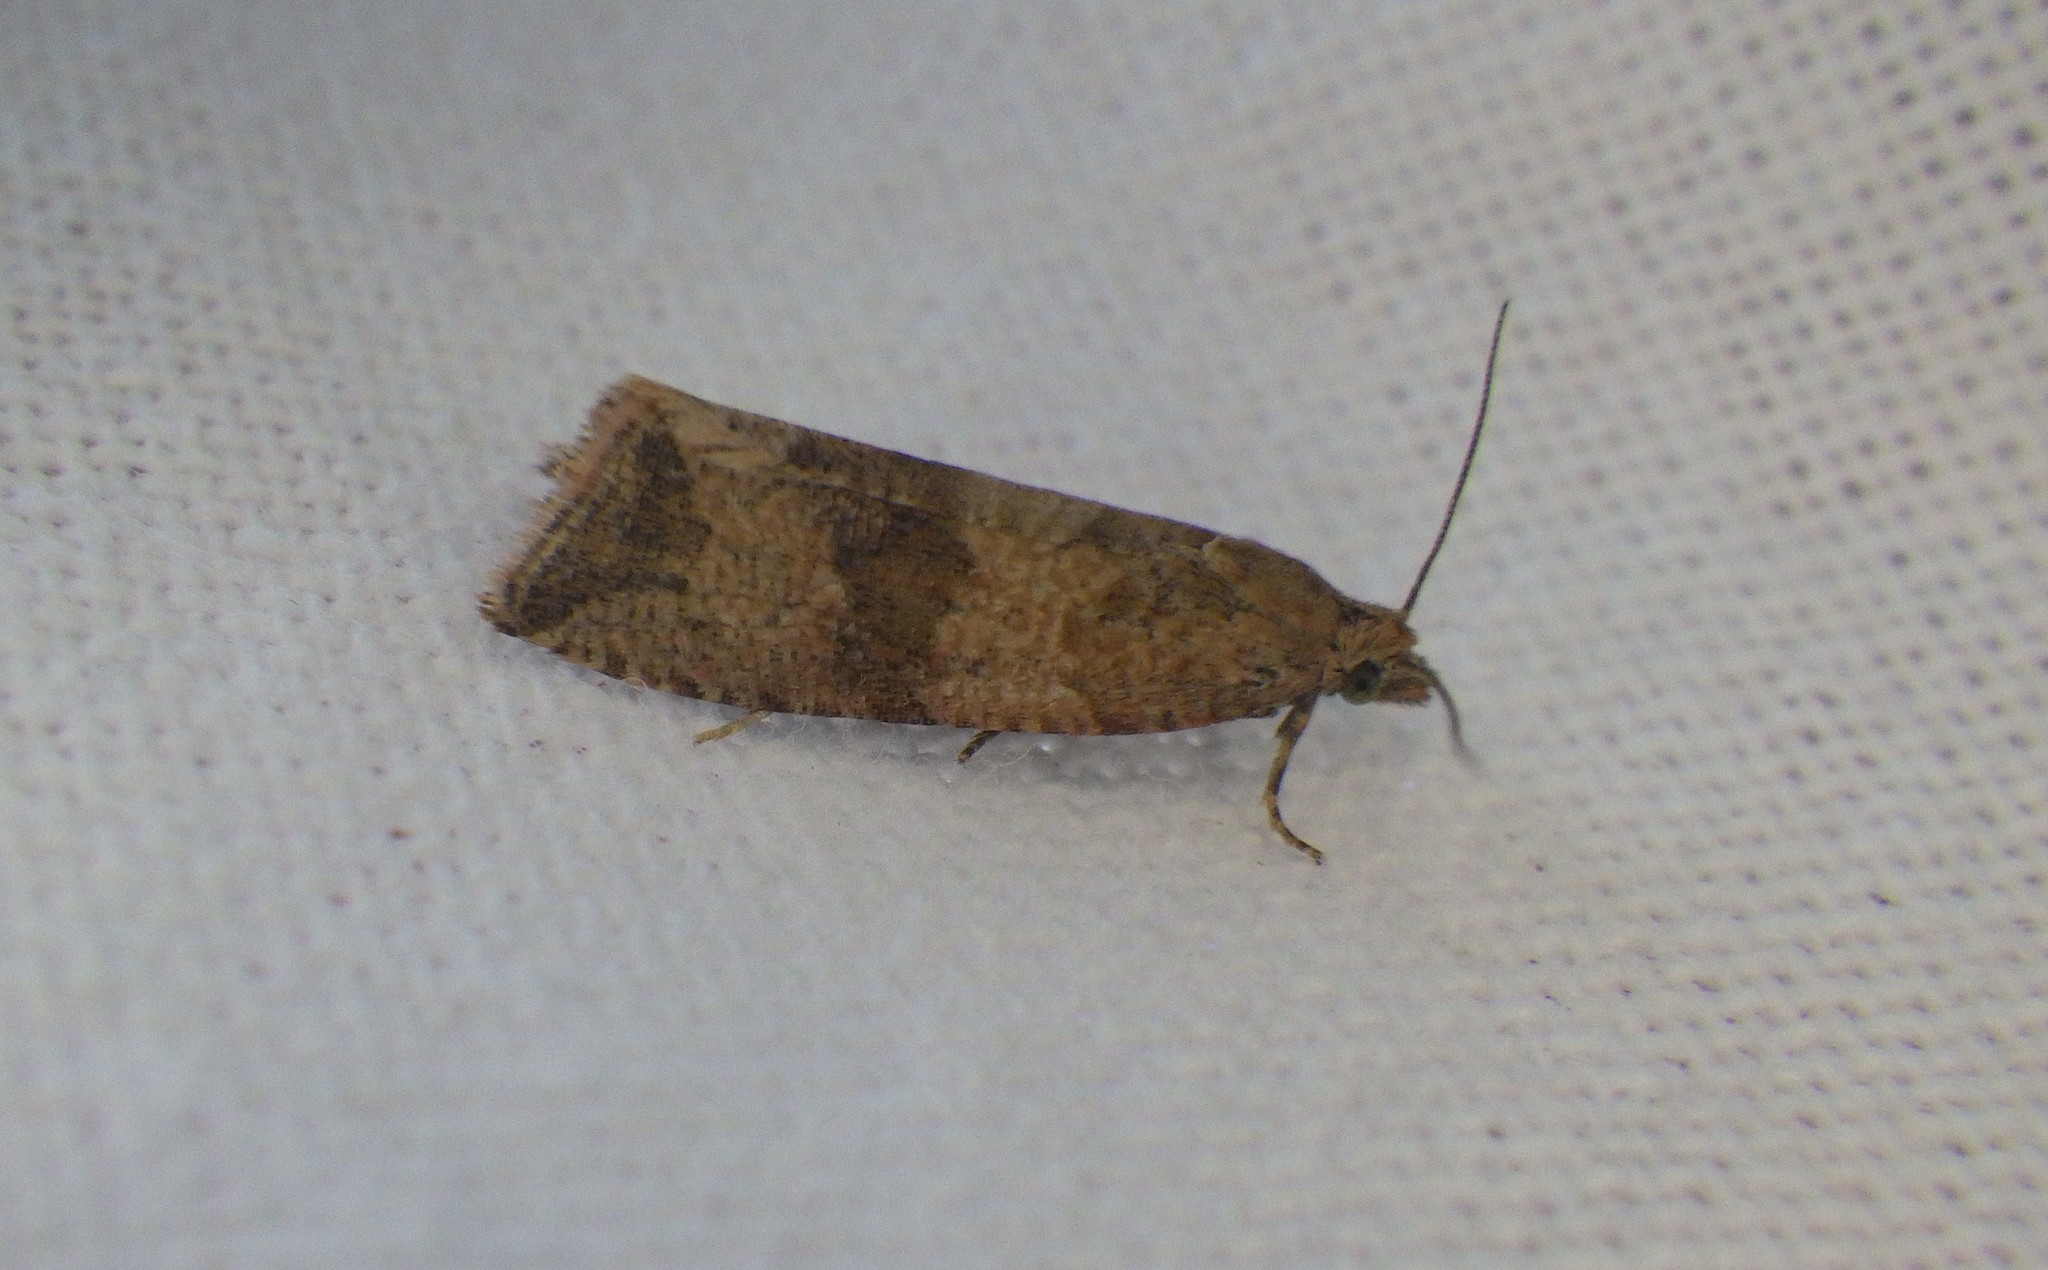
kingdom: Animalia
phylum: Arthropoda
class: Insecta
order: Lepidoptera
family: Tortricidae
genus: Celypha
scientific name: Celypha striana
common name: Barred marble
